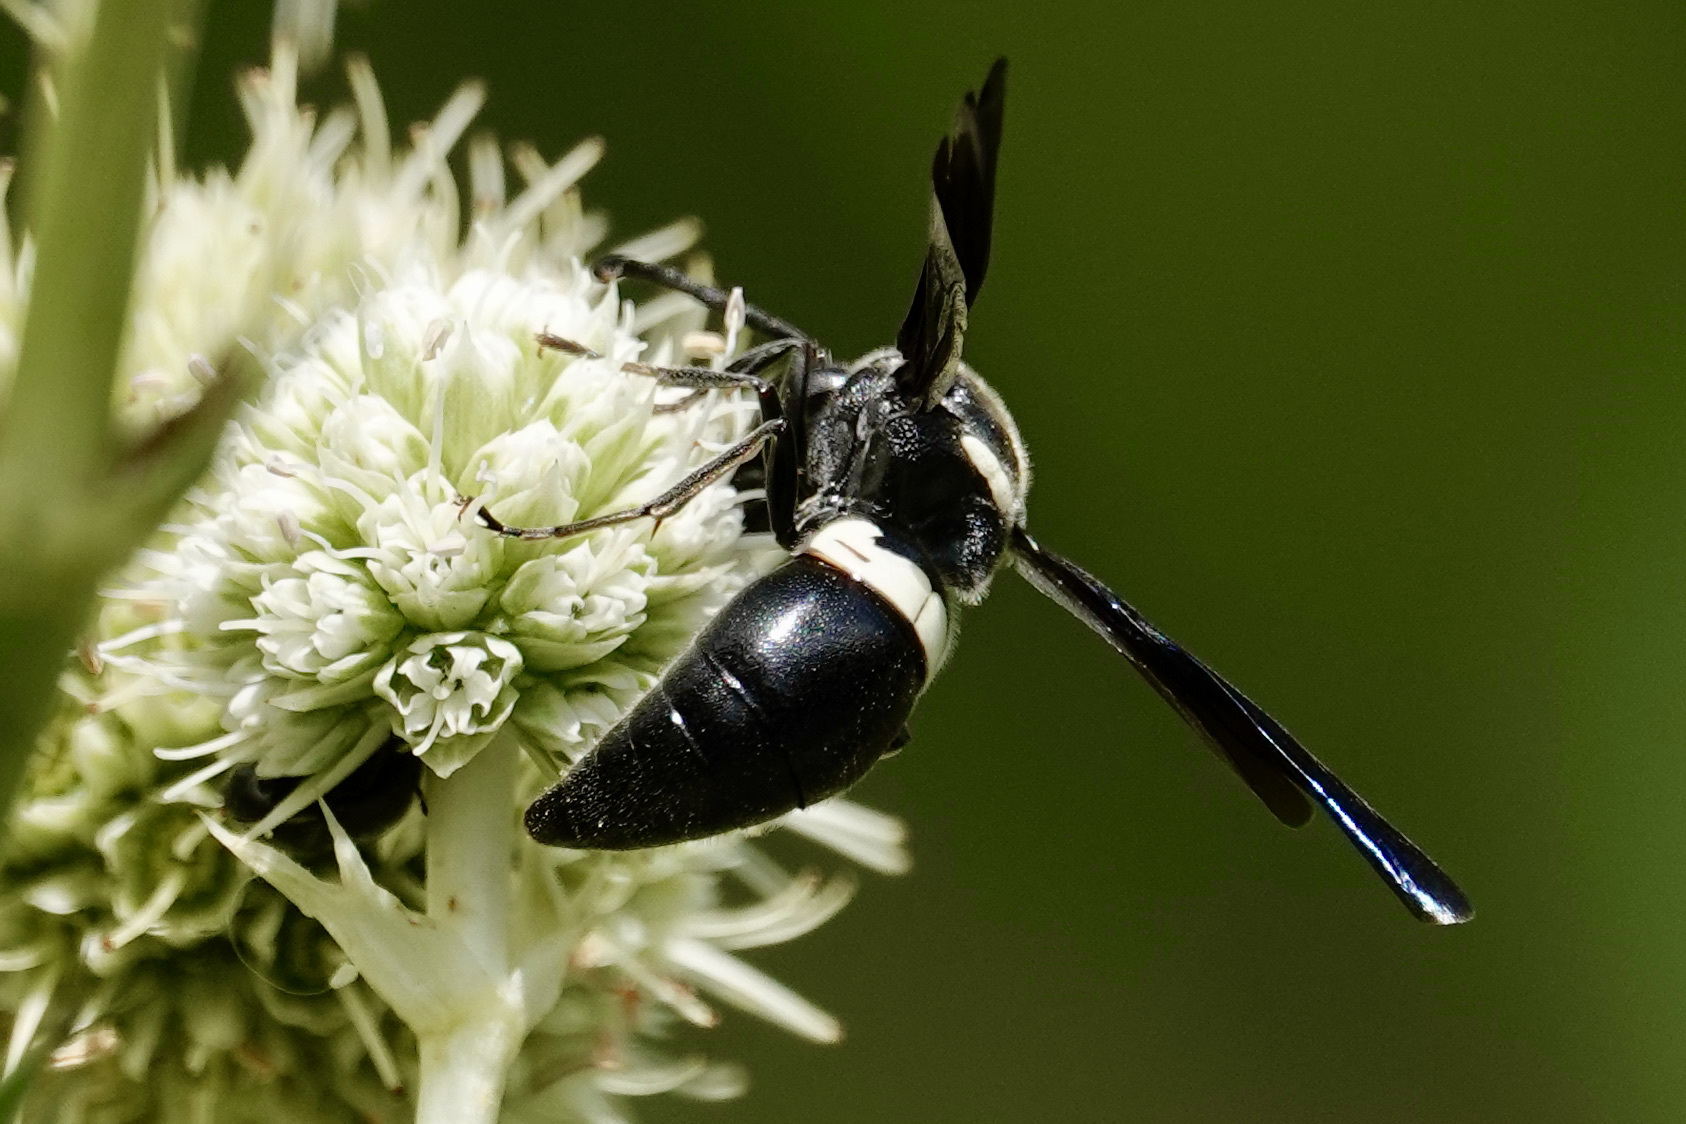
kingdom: Animalia
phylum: Arthropoda
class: Insecta
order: Hymenoptera
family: Eumenidae
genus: Monobia
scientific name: Monobia quadridens
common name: Four-toothed mason wasp
